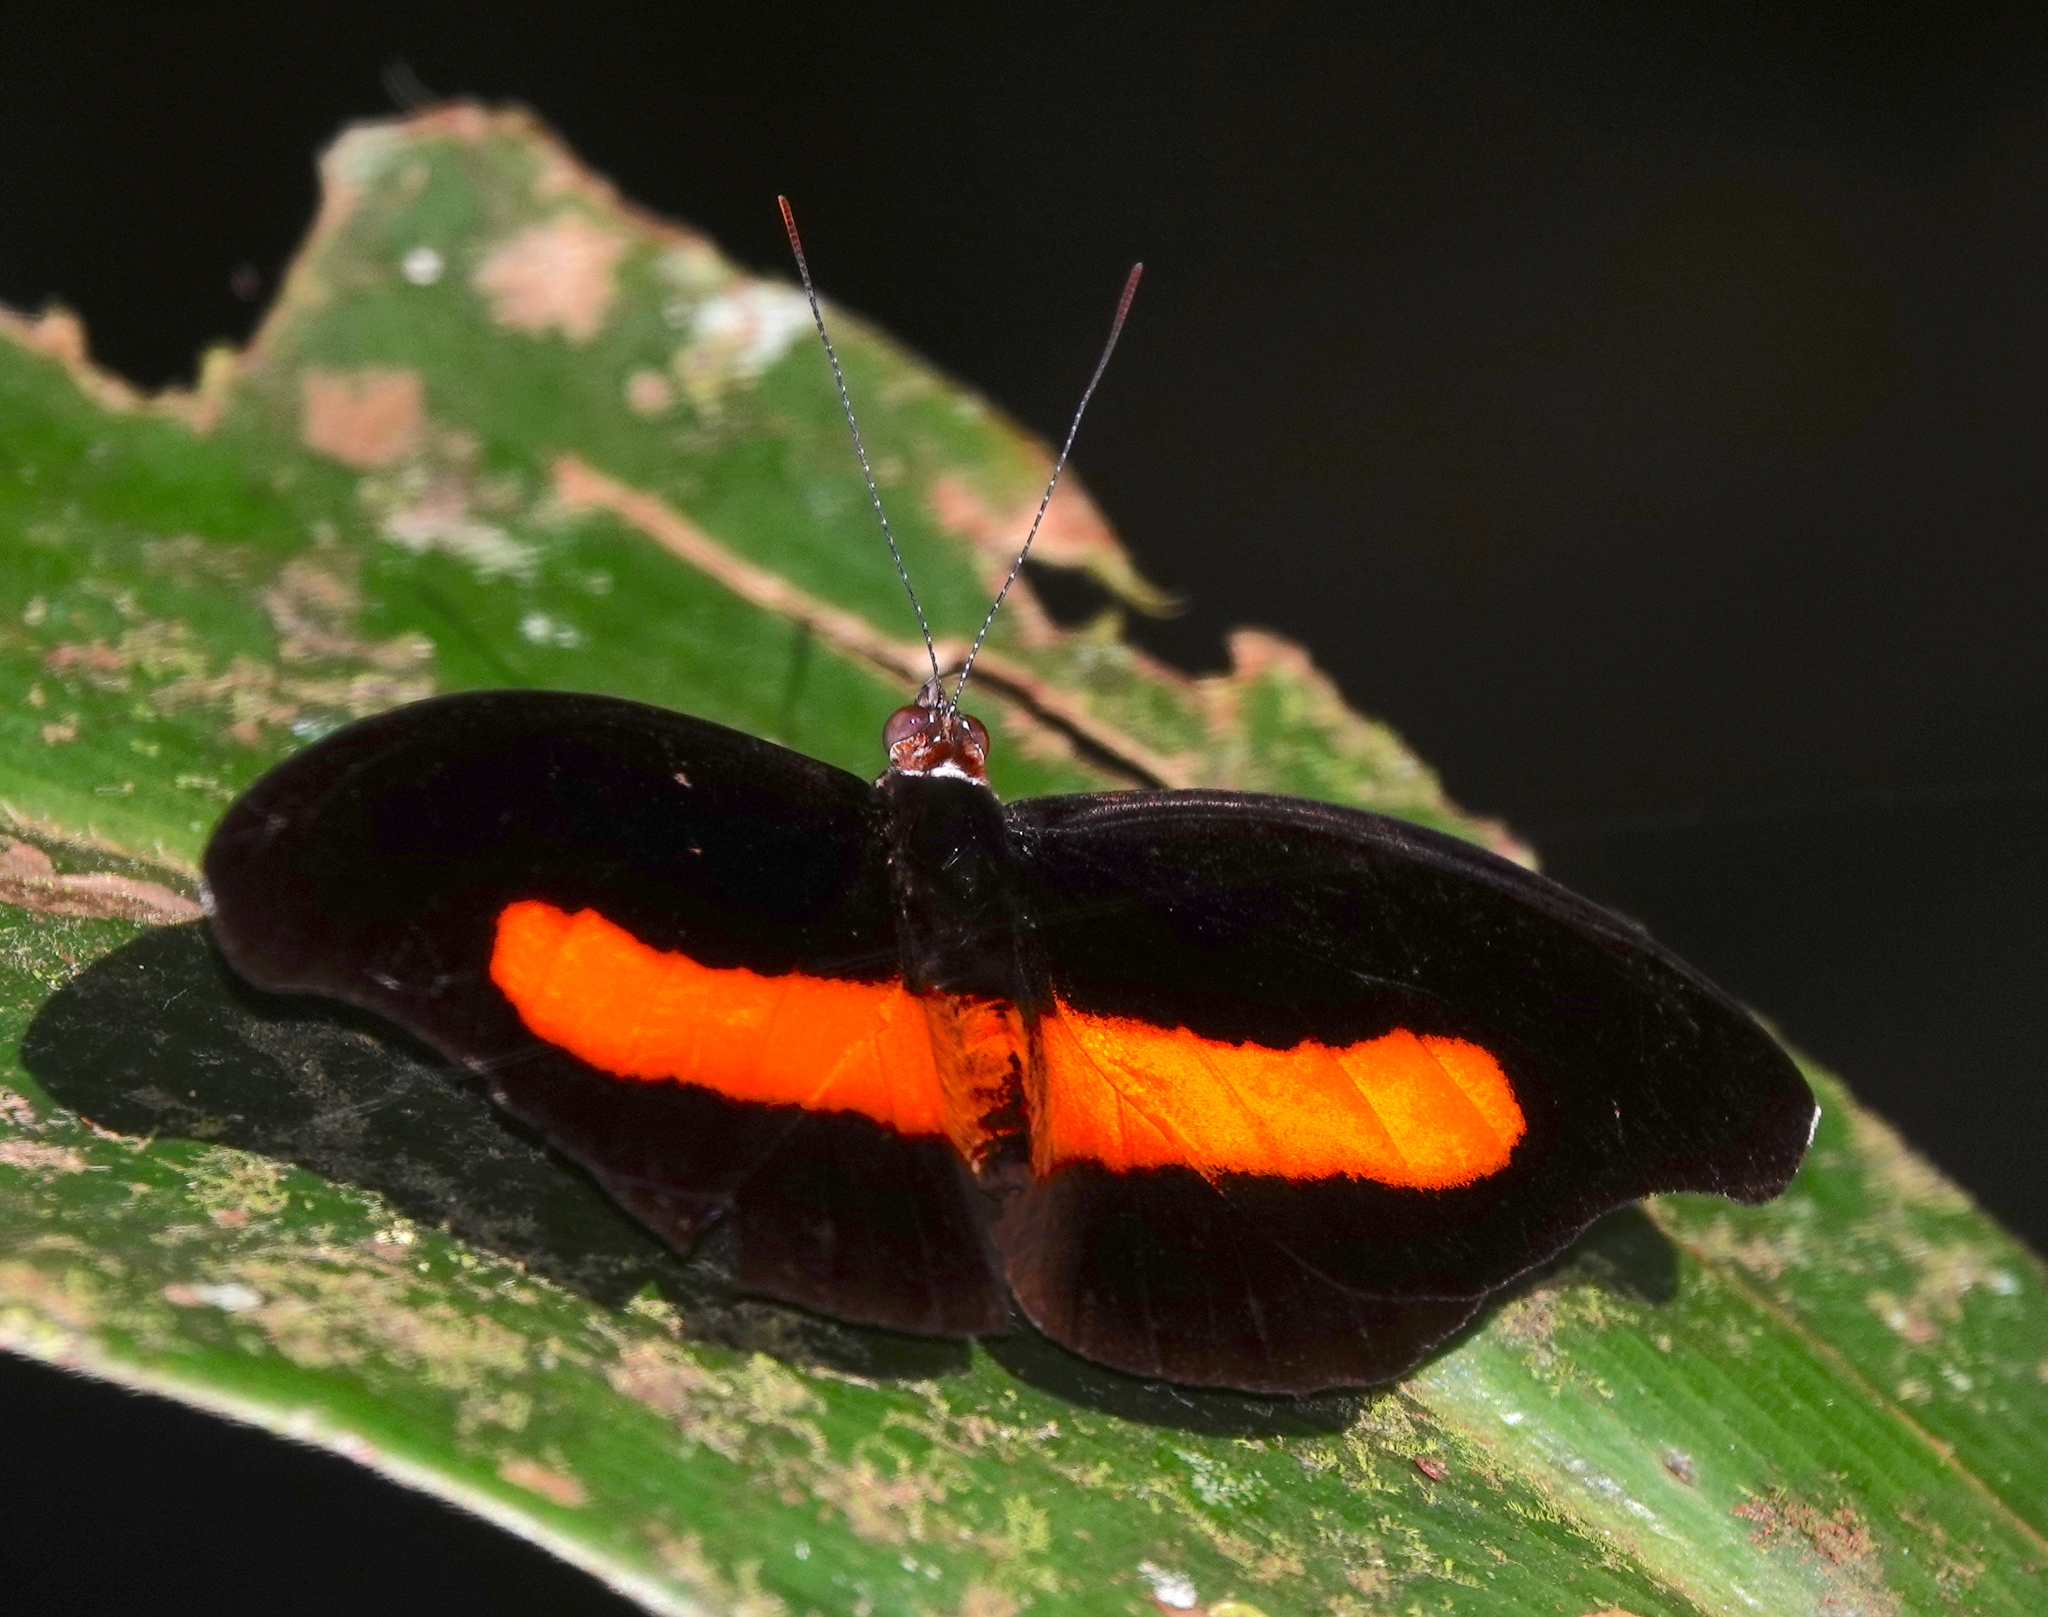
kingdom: Animalia
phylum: Arthropoda
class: Insecta
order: Lepidoptera
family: Nymphalidae
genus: Catonephele
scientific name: Catonephele acontius
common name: Unspotted firewing
